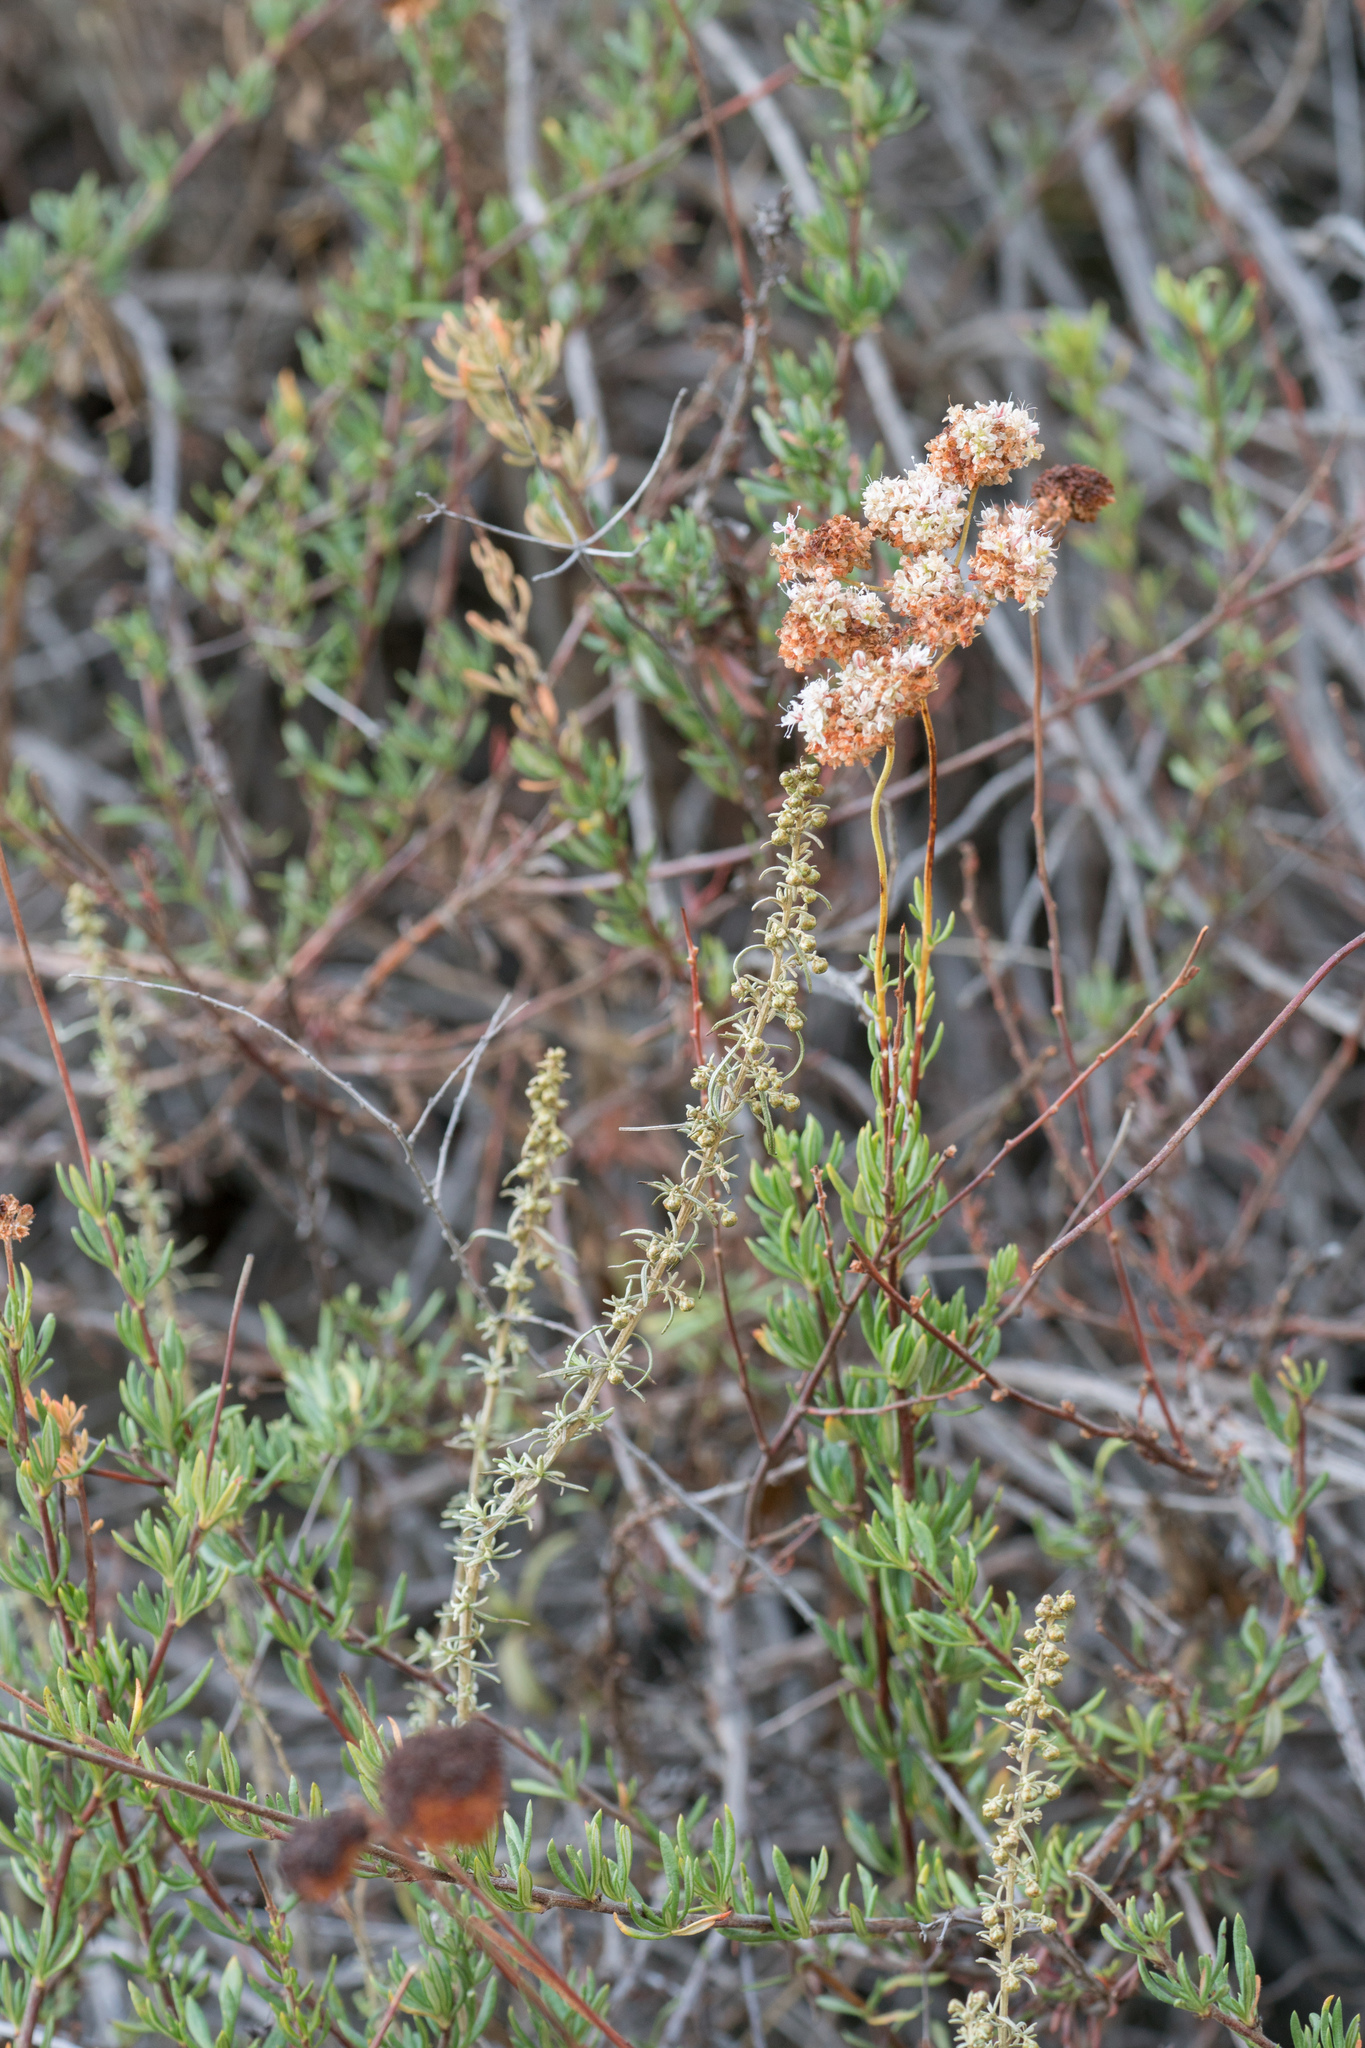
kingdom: Plantae
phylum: Tracheophyta
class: Magnoliopsida
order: Caryophyllales
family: Polygonaceae
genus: Eriogonum
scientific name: Eriogonum fasciculatum
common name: California wild buckwheat
